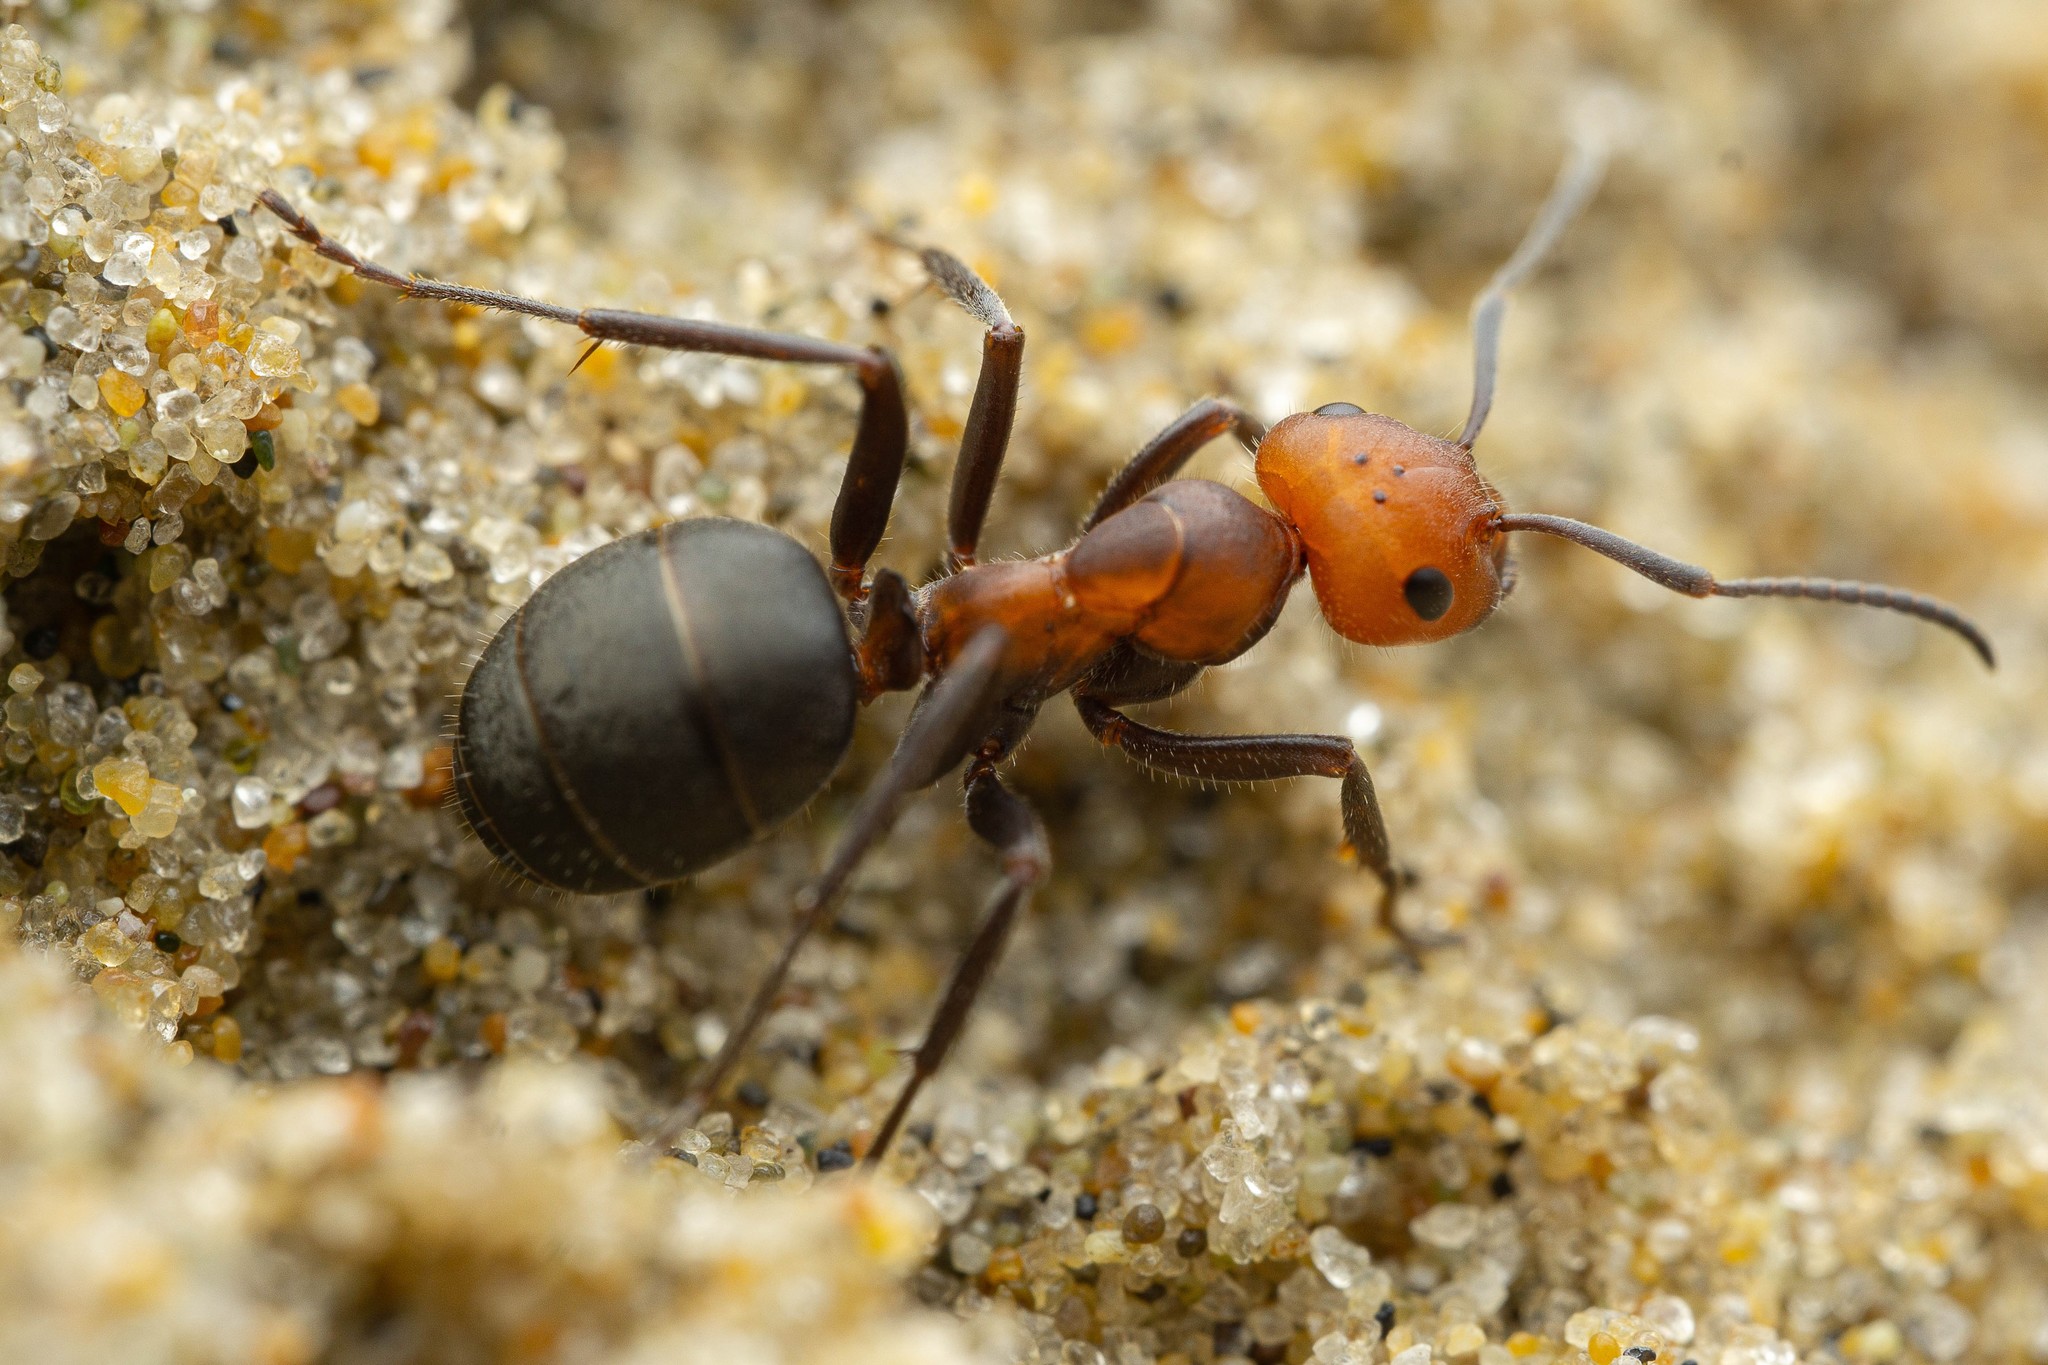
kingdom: Animalia
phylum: Arthropoda
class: Insecta
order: Hymenoptera
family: Formicidae
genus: Formica
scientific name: Formica obscuripes
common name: Western thatching ant
